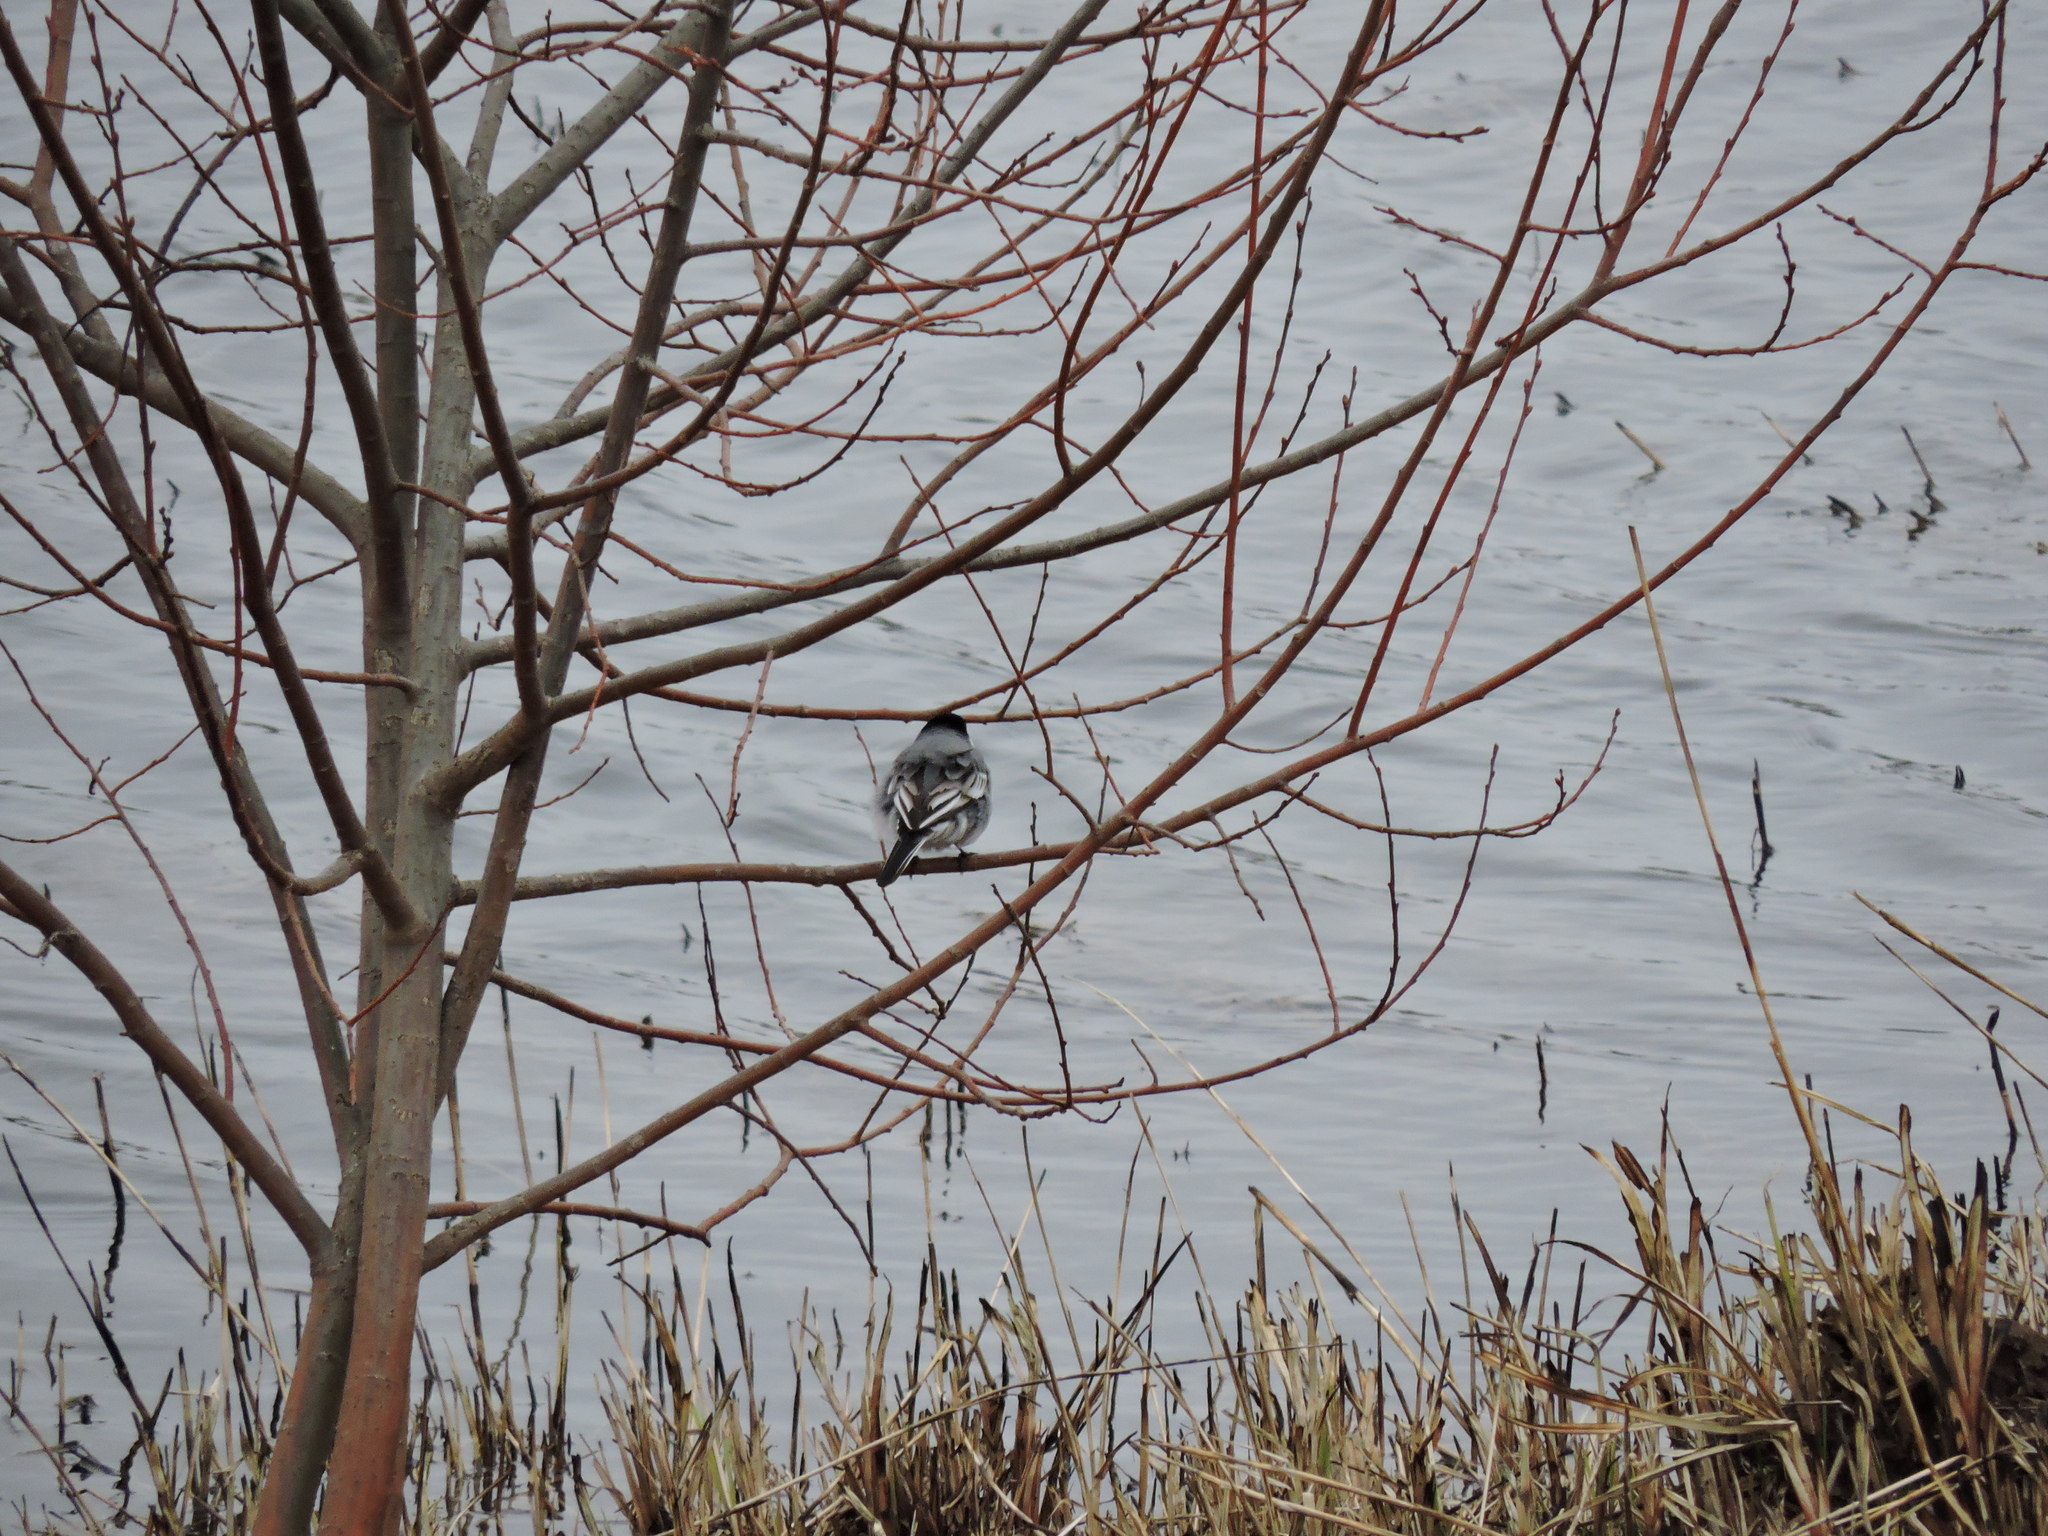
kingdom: Animalia
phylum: Chordata
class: Aves
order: Passeriformes
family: Motacillidae
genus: Motacilla
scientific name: Motacilla alba
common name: White wagtail
